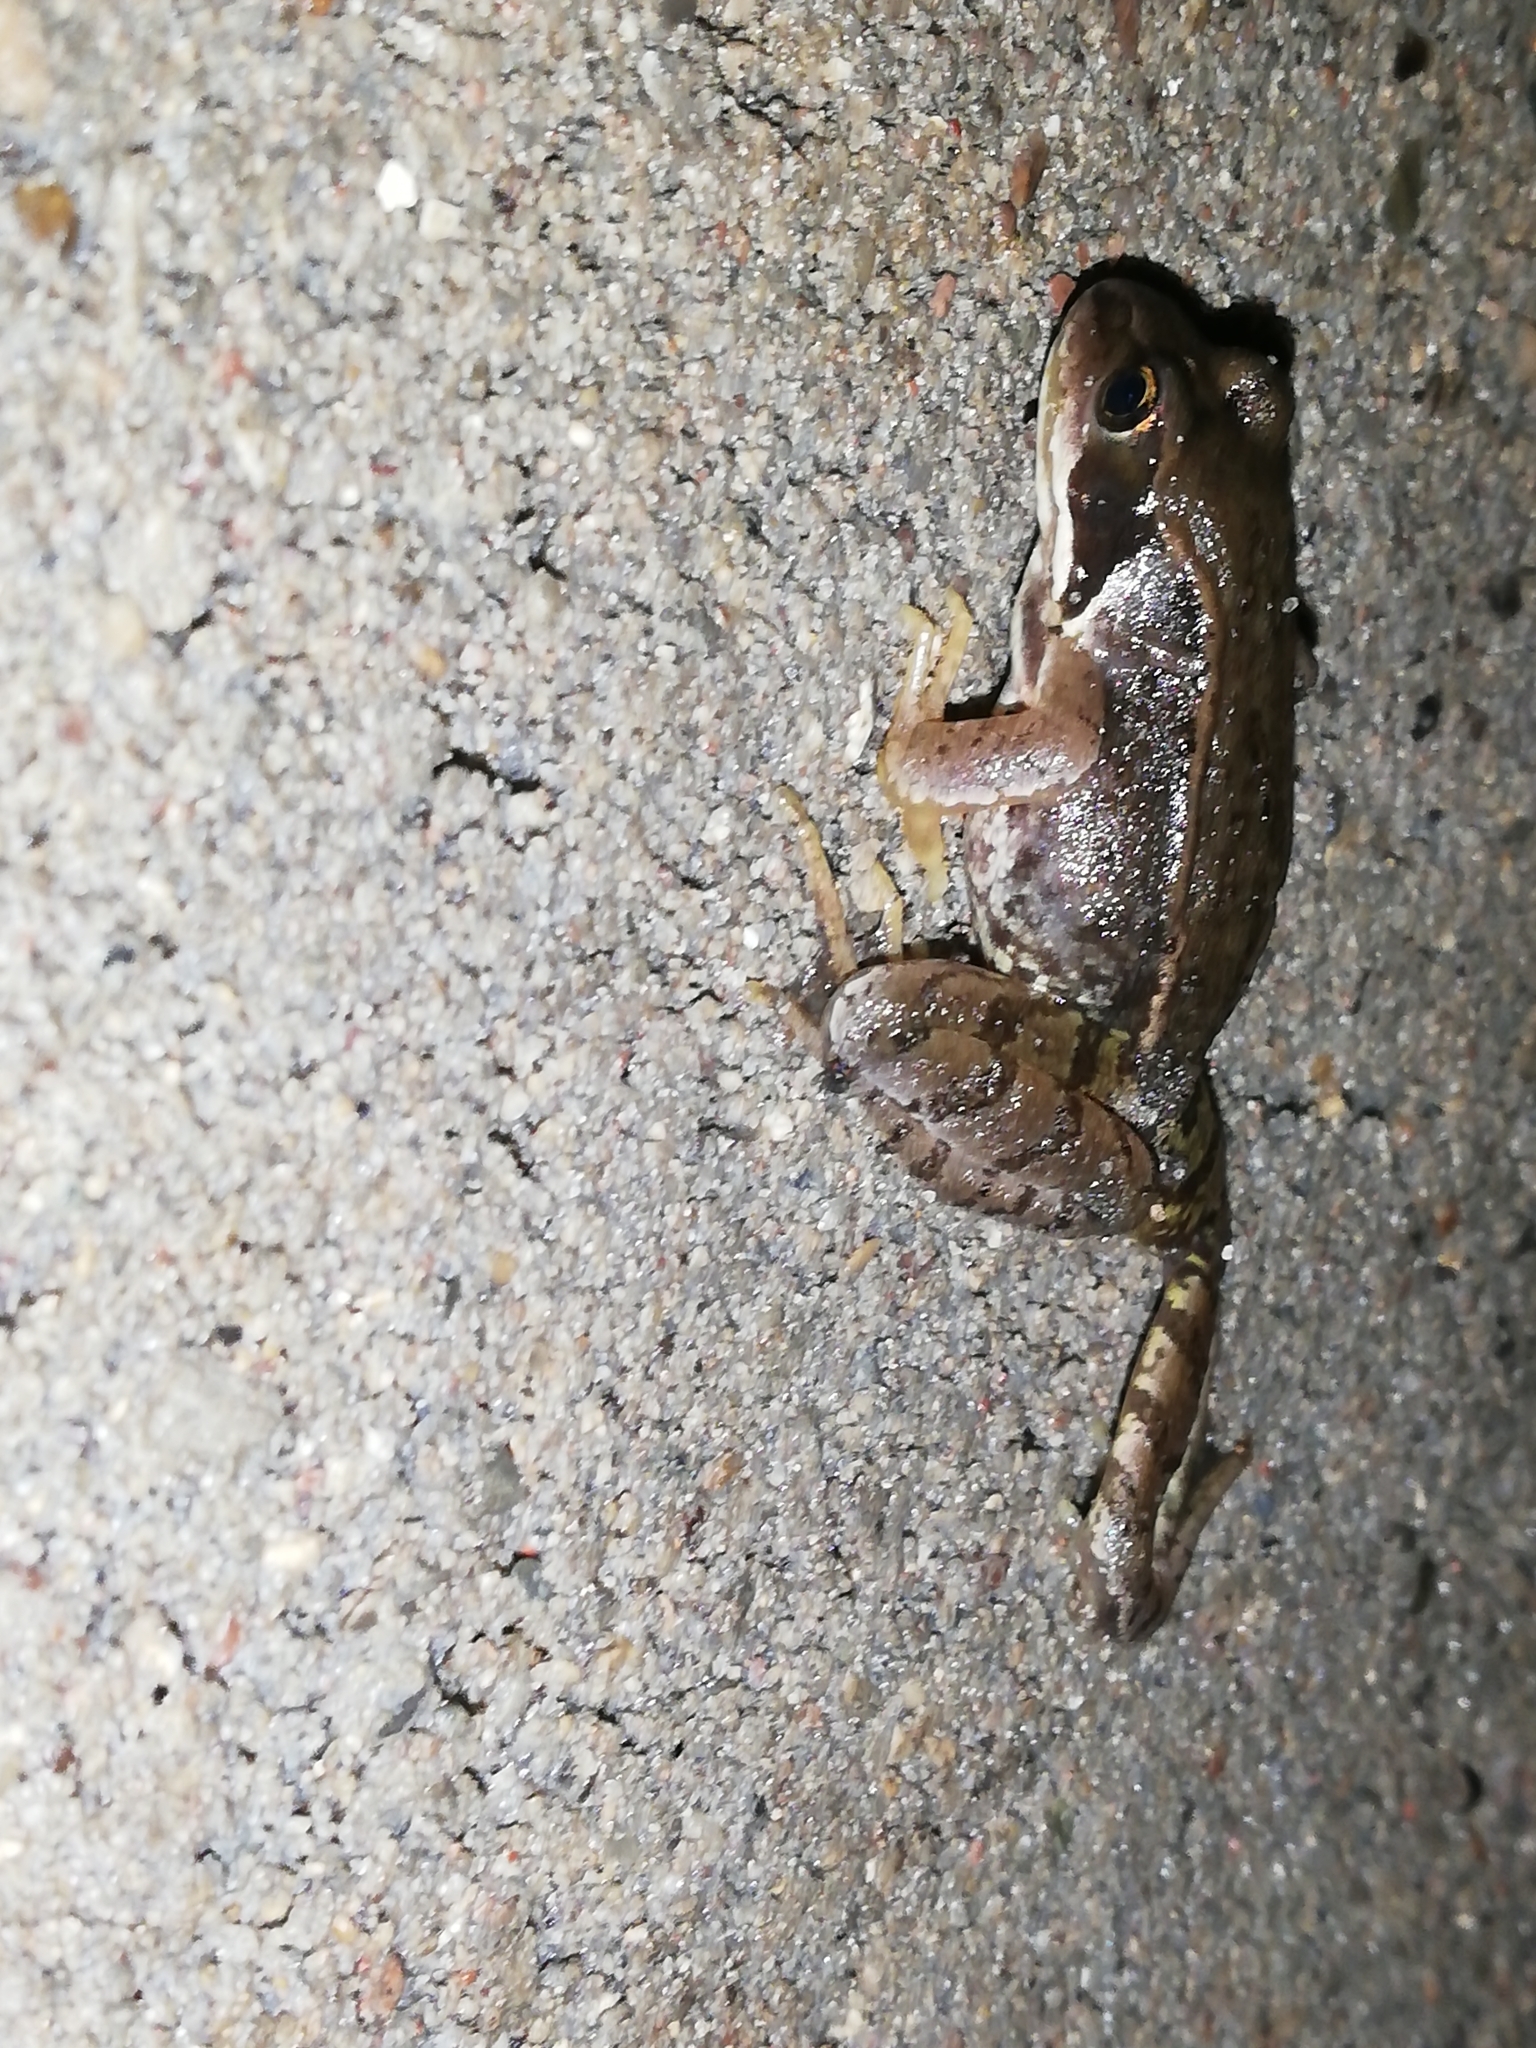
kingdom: Animalia
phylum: Chordata
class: Amphibia
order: Anura
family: Ranidae
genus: Rana
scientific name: Rana temporaria
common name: Common frog
